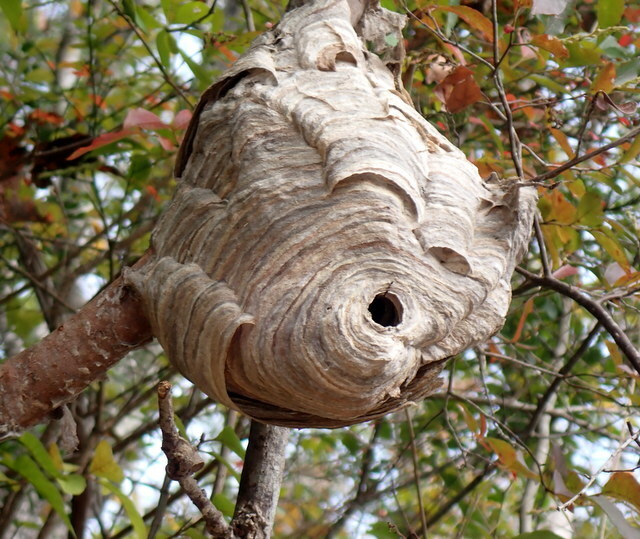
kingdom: Animalia
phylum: Arthropoda
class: Insecta
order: Hymenoptera
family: Vespidae
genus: Dolichovespula
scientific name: Dolichovespula maculata
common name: Bald-faced hornet
